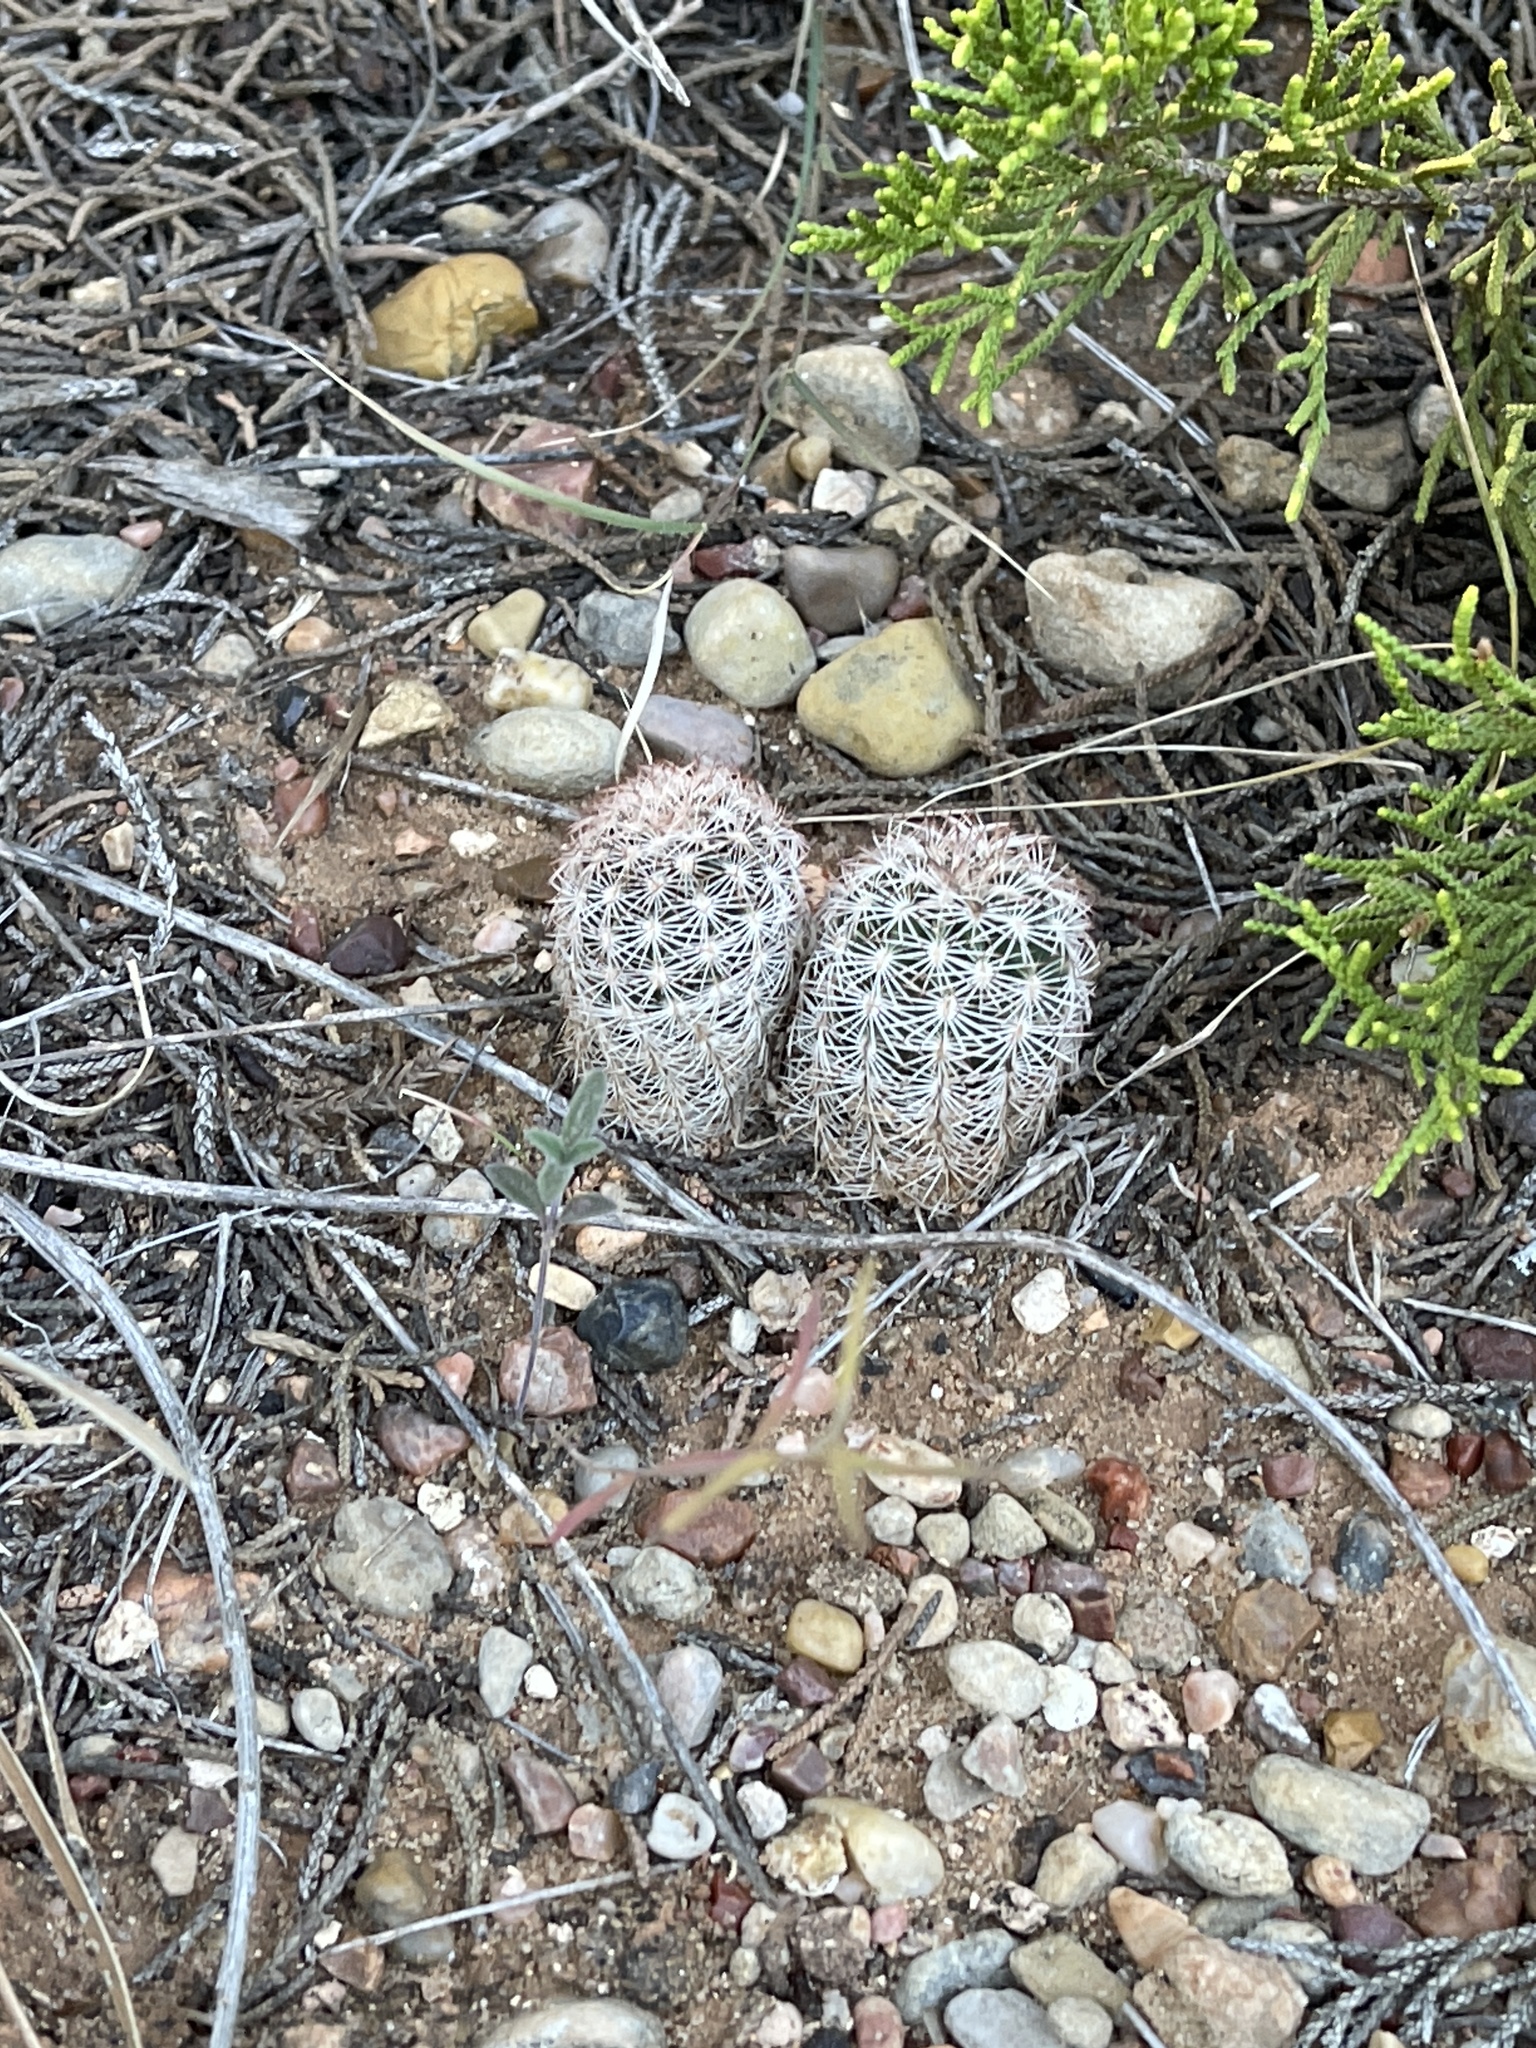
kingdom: Plantae
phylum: Tracheophyta
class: Magnoliopsida
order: Caryophyllales
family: Cactaceae
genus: Echinocereus
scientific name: Echinocereus reichenbachii
